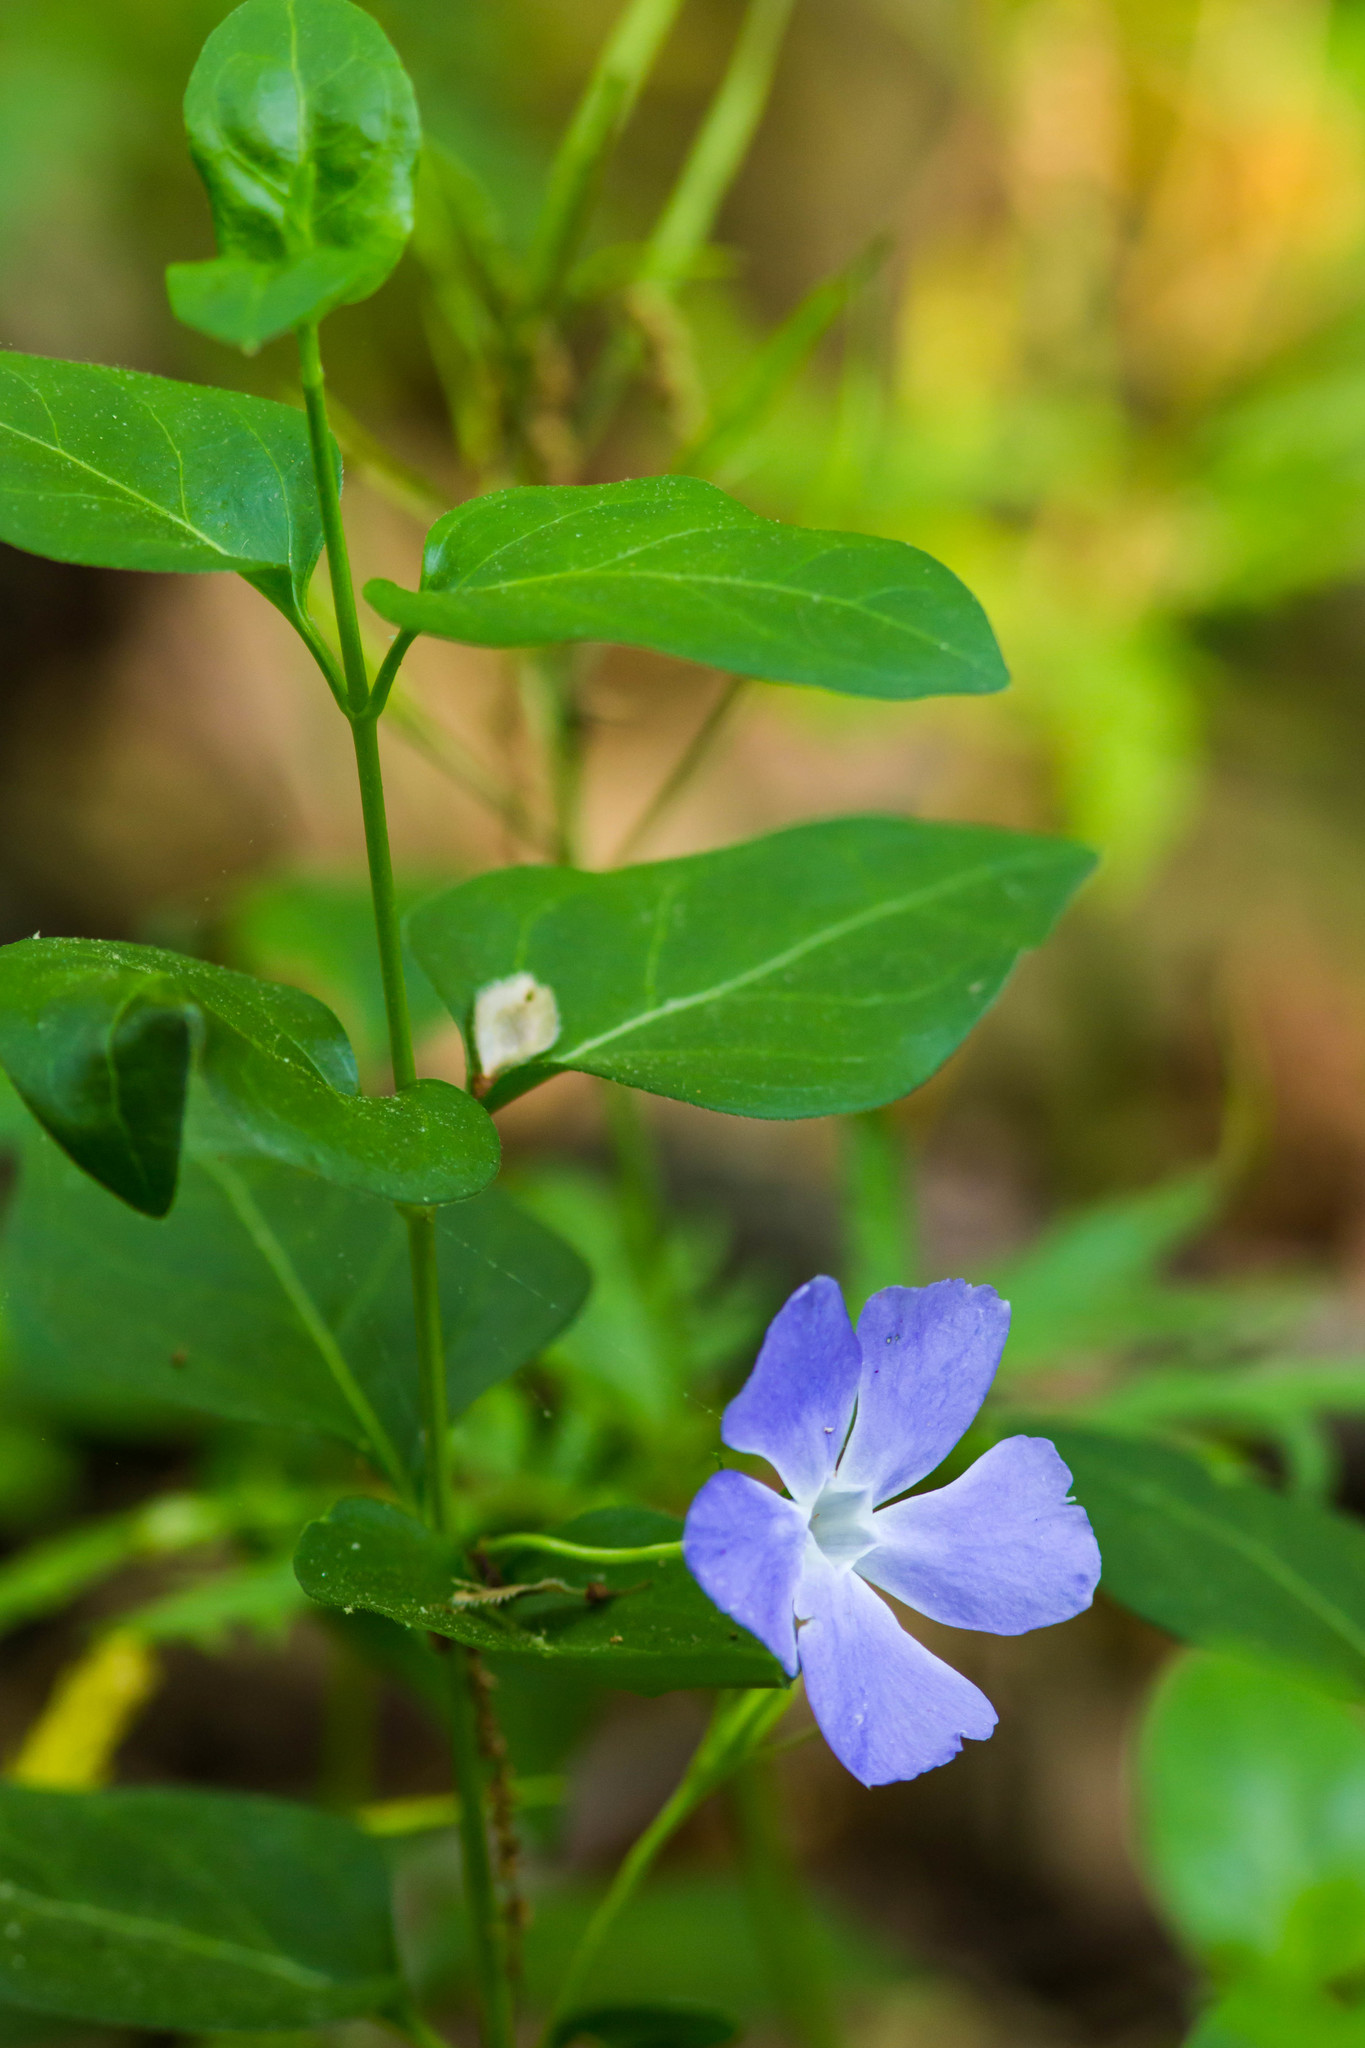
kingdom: Plantae
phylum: Tracheophyta
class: Magnoliopsida
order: Gentianales
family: Apocynaceae
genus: Vinca
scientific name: Vinca major
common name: Greater periwinkle
